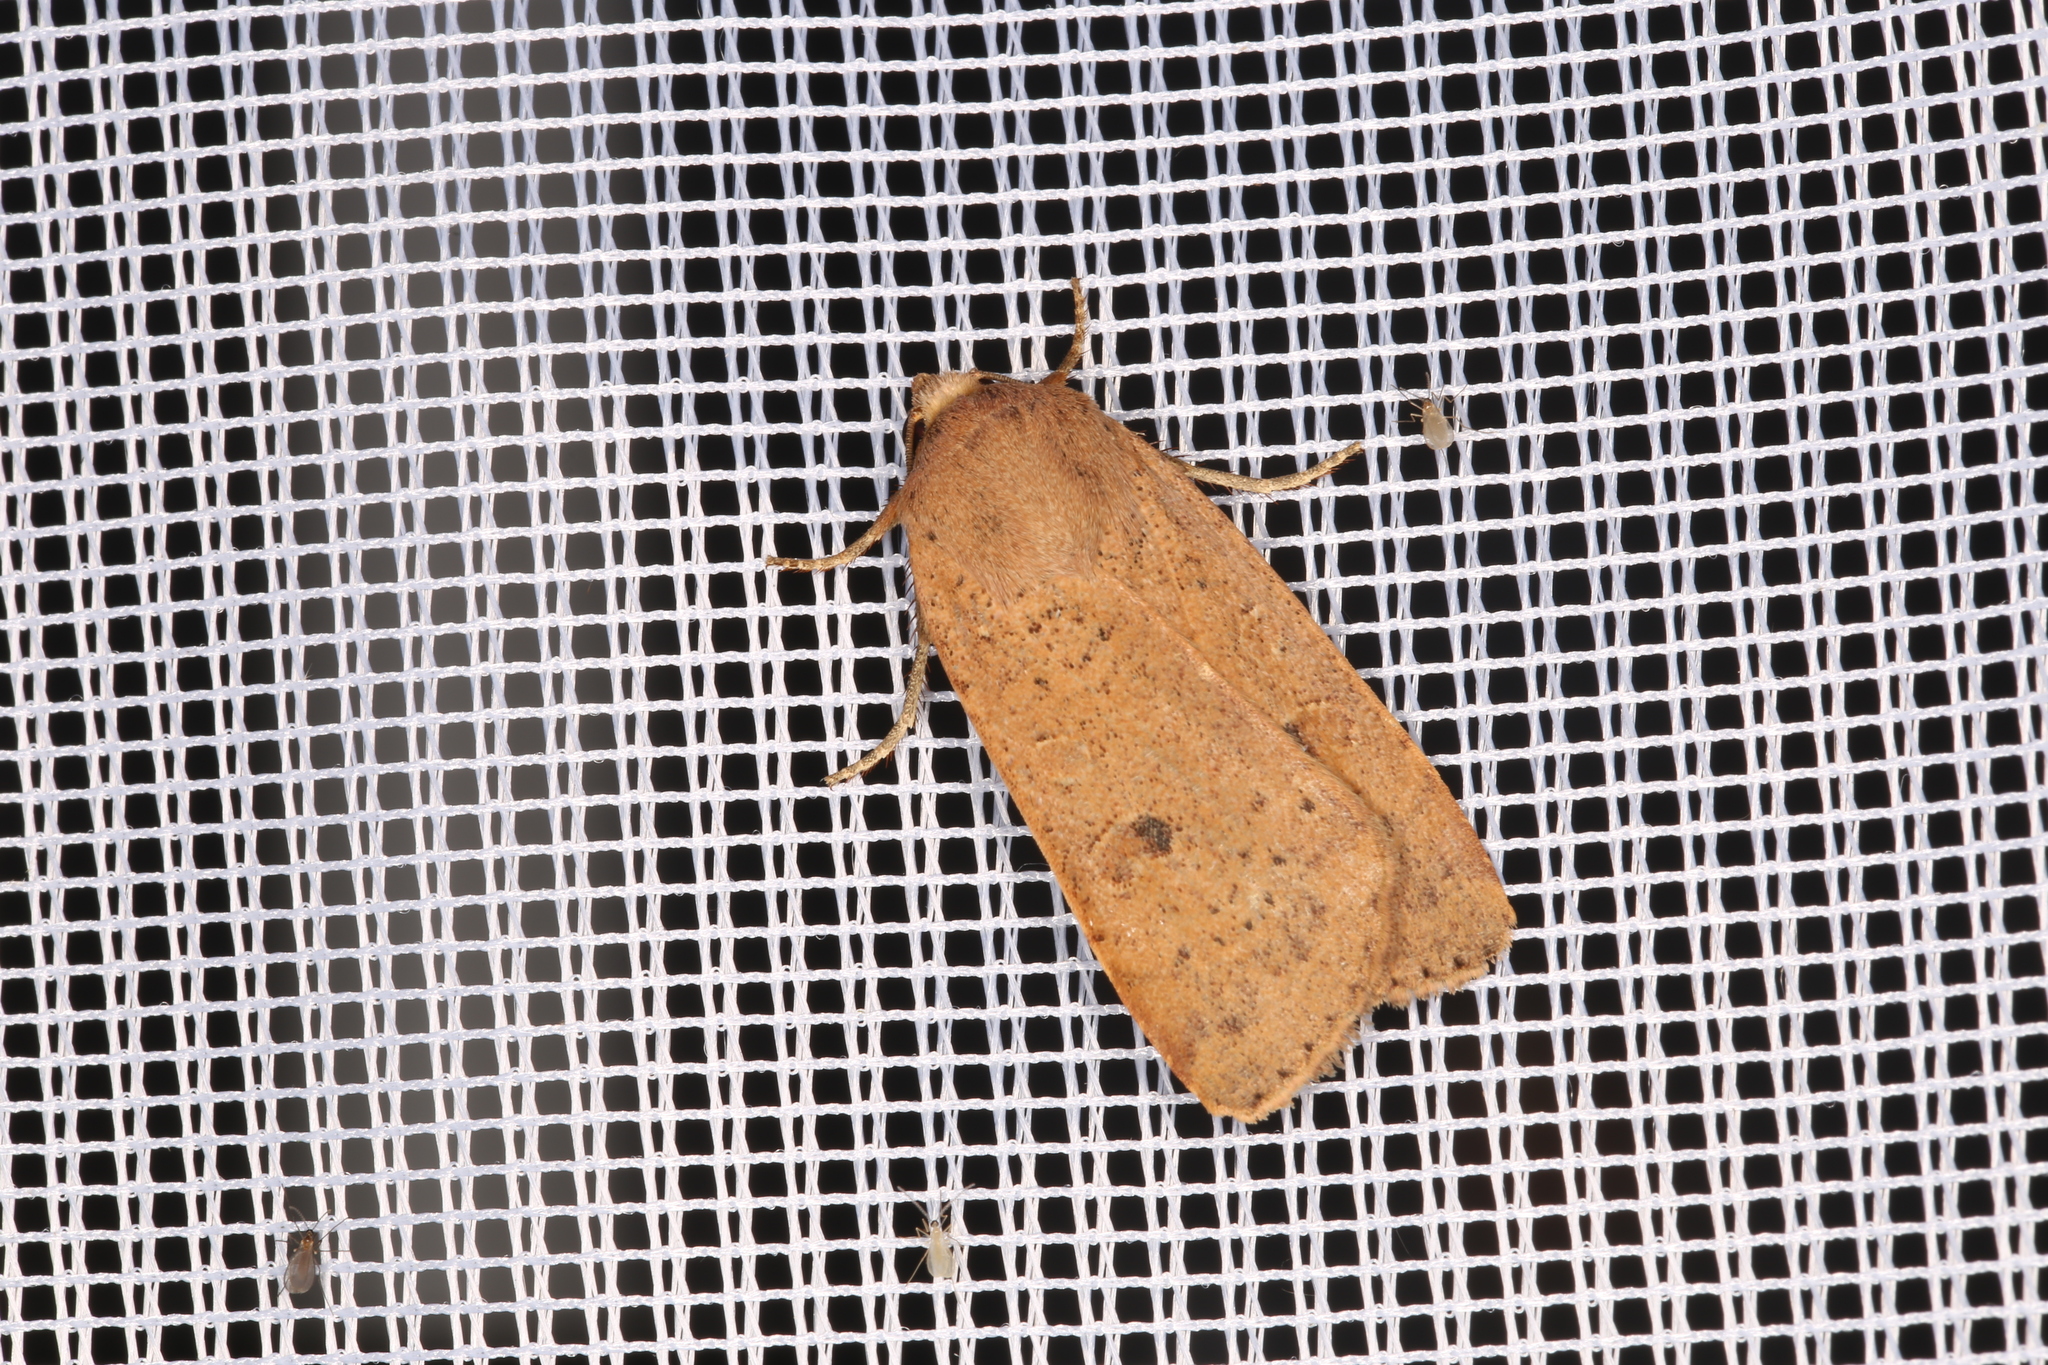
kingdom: Animalia
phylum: Arthropoda
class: Insecta
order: Lepidoptera
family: Noctuidae
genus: Noctua
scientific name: Noctua comes
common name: Lesser yellow underwing
